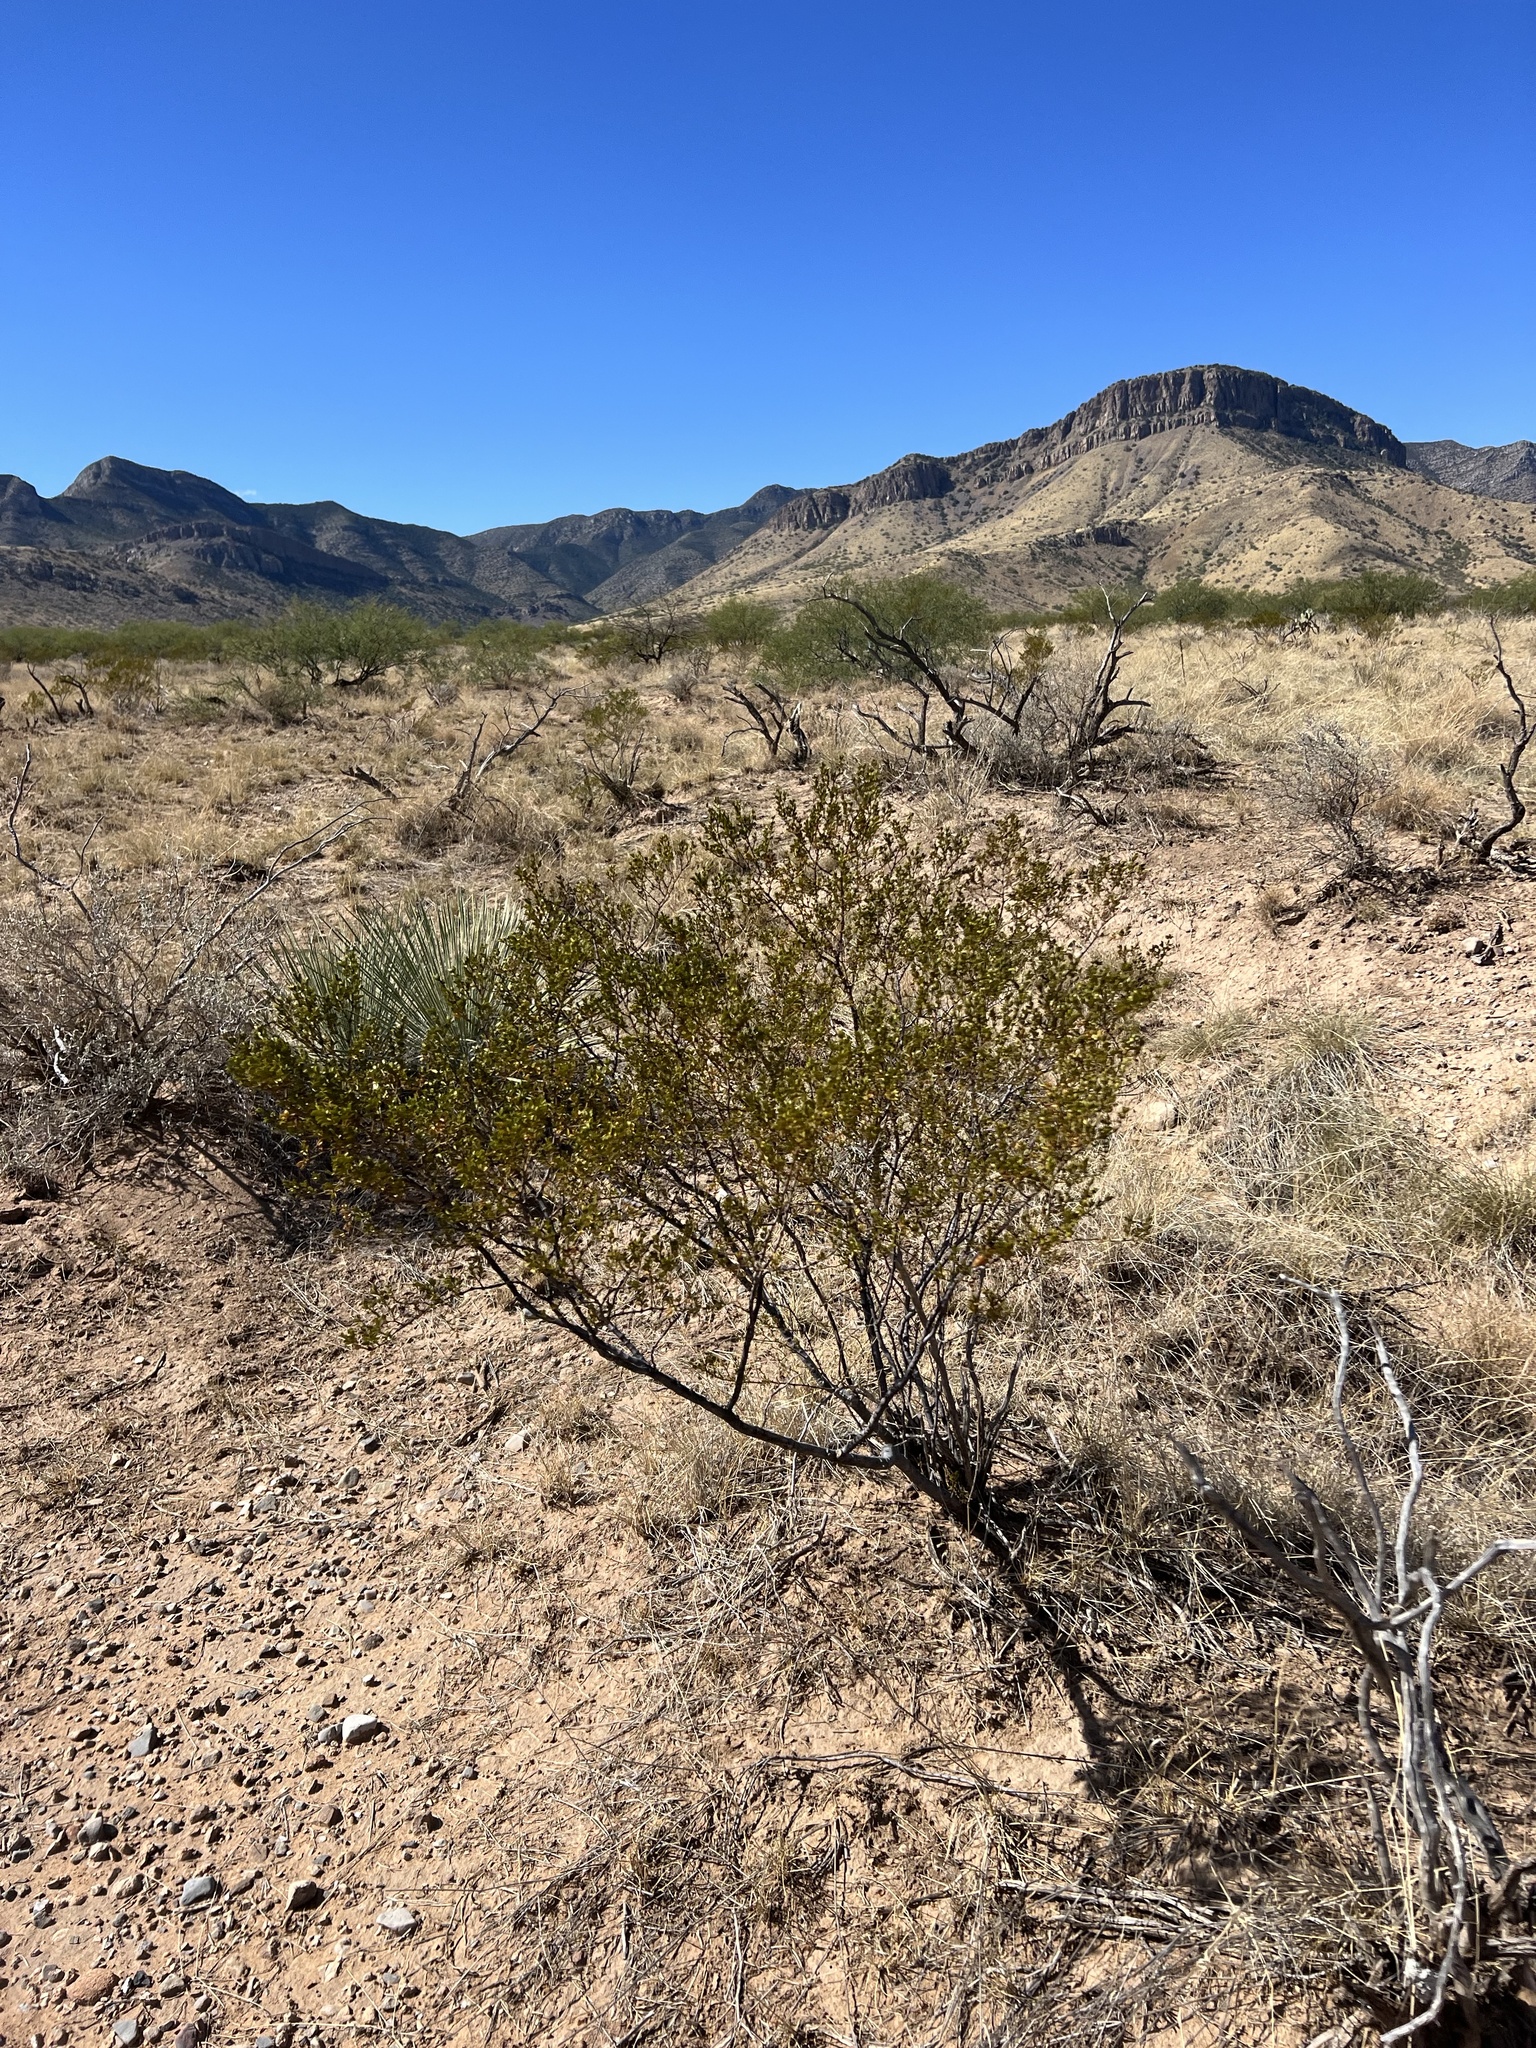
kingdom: Plantae
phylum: Tracheophyta
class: Magnoliopsida
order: Zygophyllales
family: Zygophyllaceae
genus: Larrea
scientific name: Larrea tridentata
